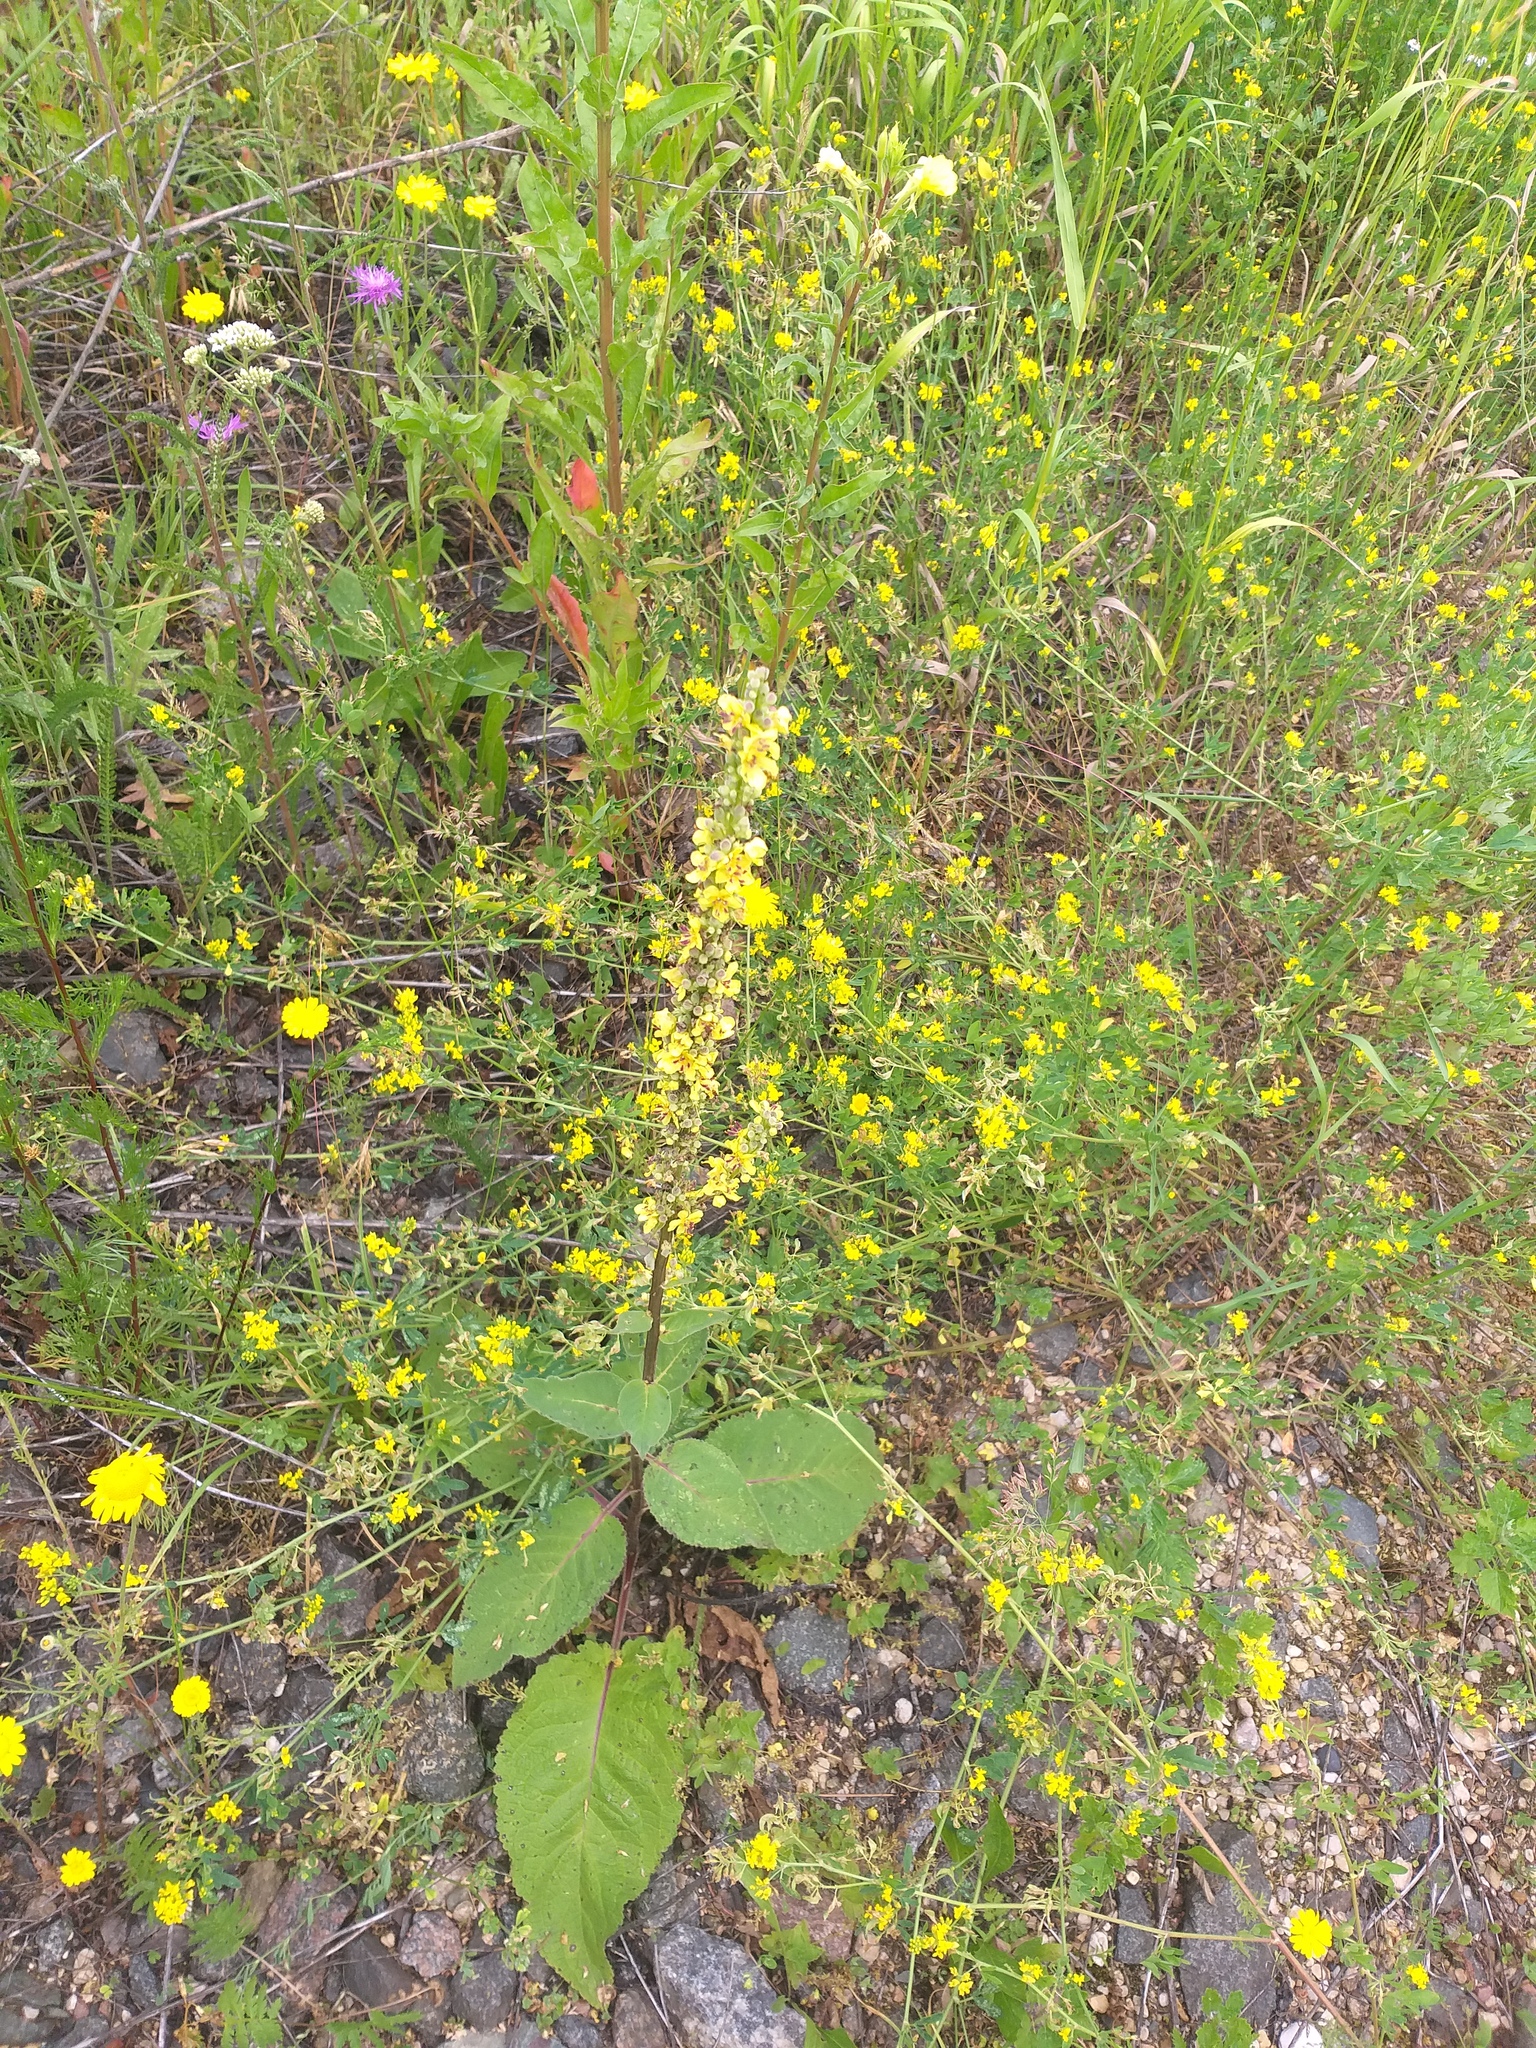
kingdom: Plantae
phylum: Tracheophyta
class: Magnoliopsida
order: Lamiales
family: Scrophulariaceae
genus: Verbascum
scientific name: Verbascum nigrum
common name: Dark mullein
